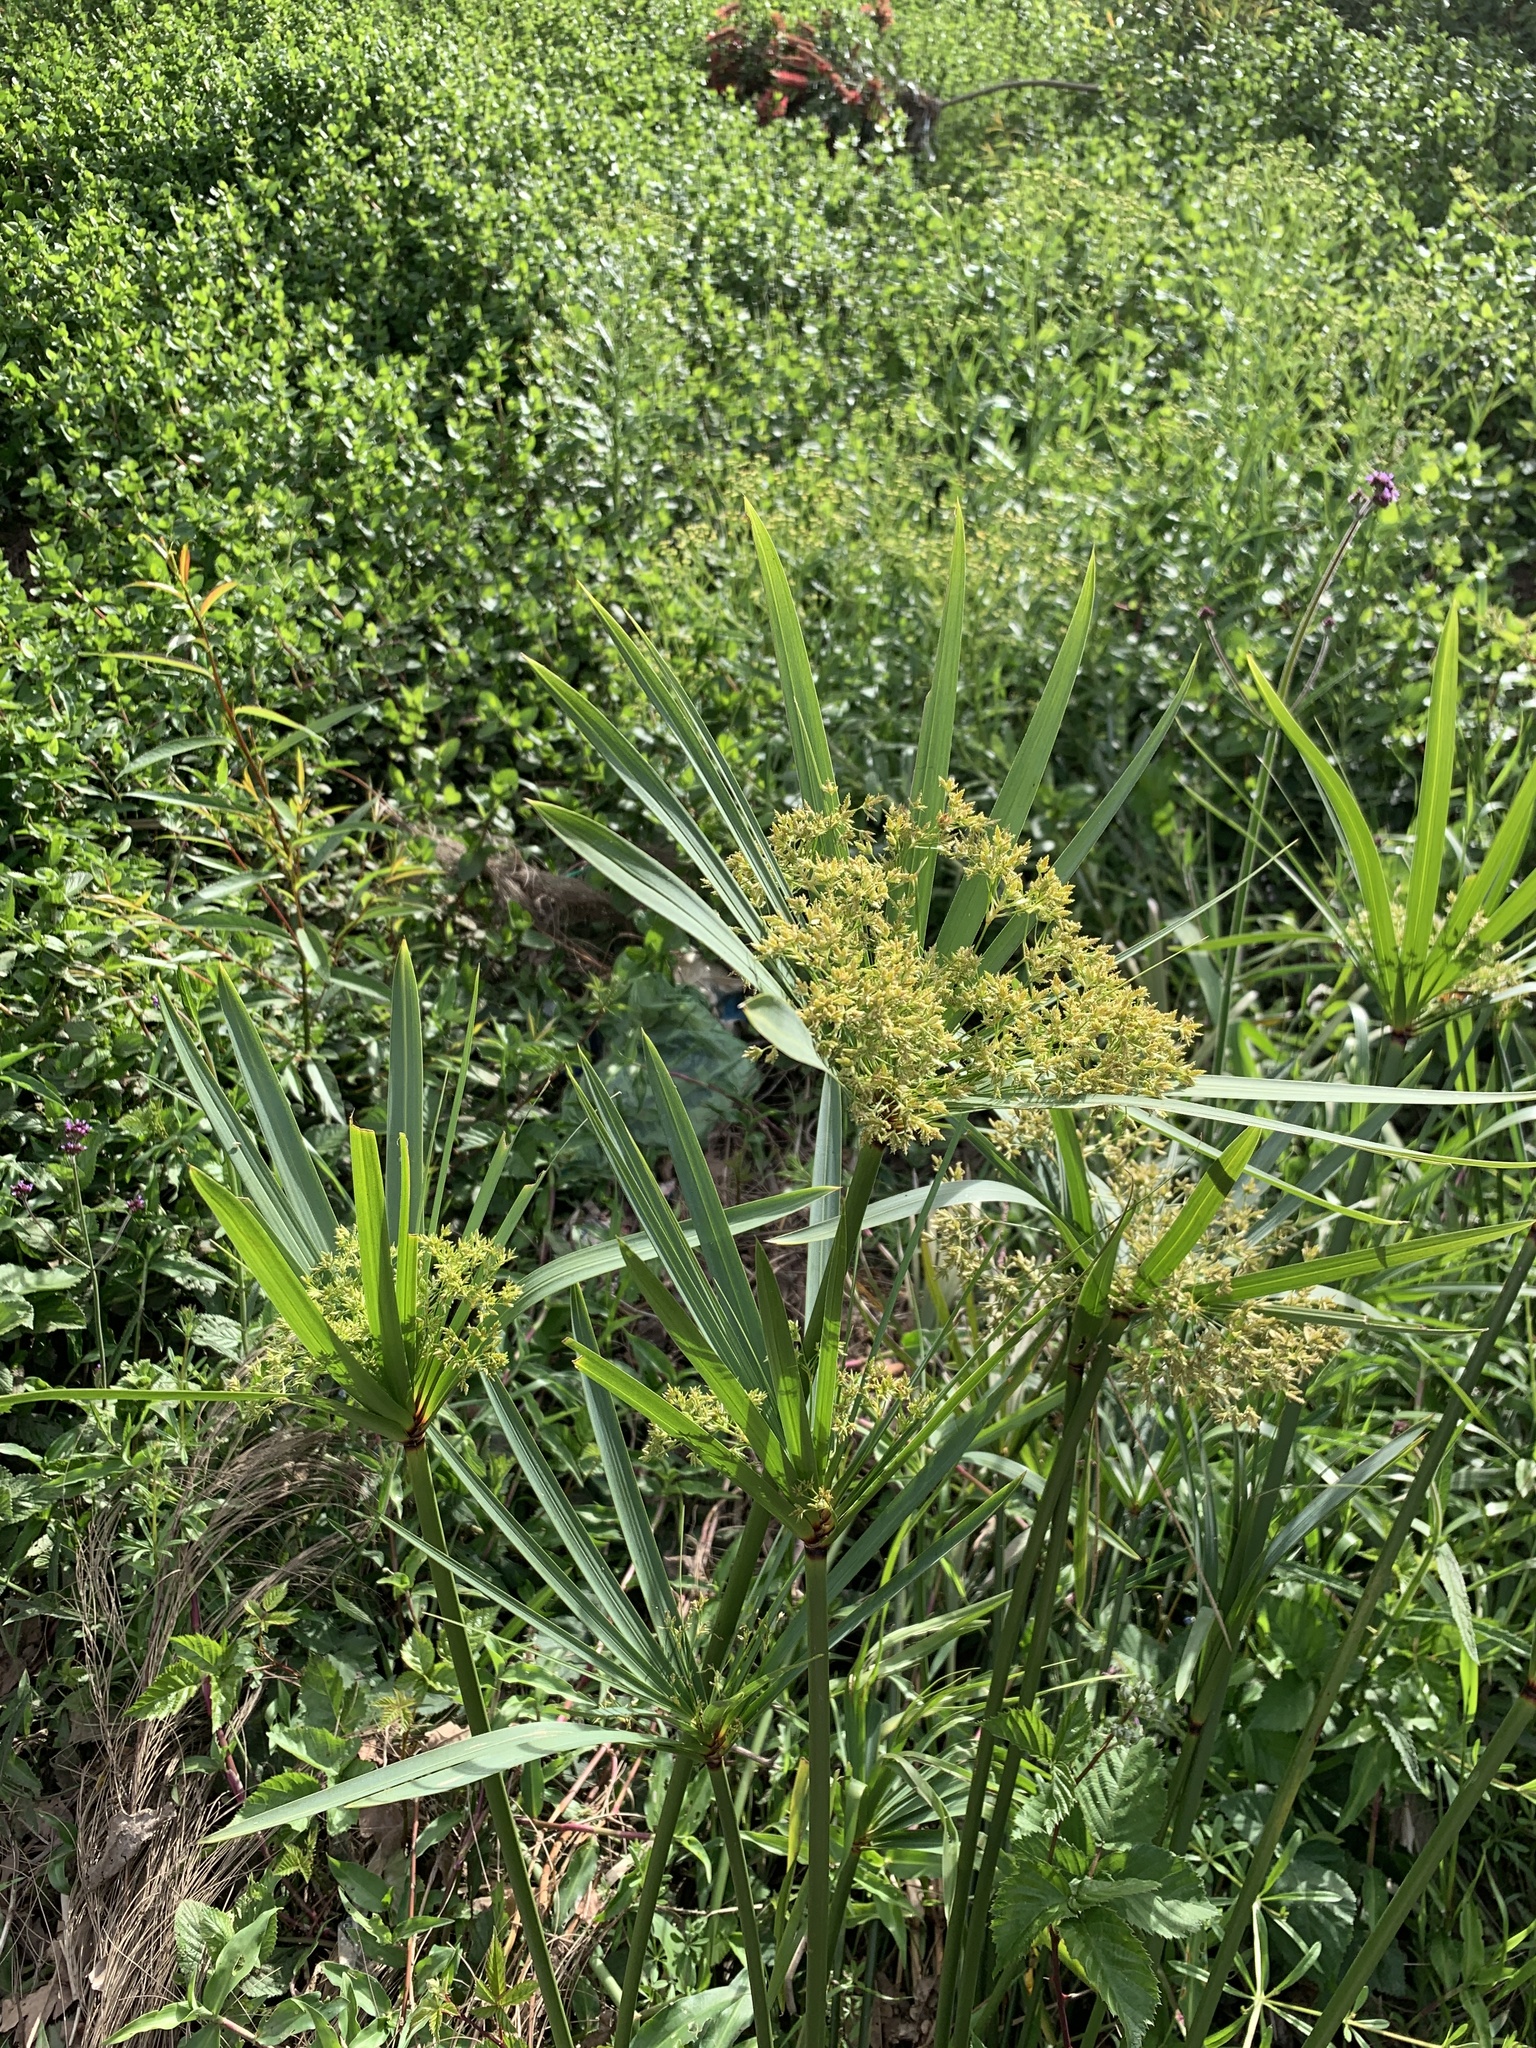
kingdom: Plantae
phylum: Tracheophyta
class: Liliopsida
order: Poales
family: Cyperaceae
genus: Cyperus
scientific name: Cyperus textilis
